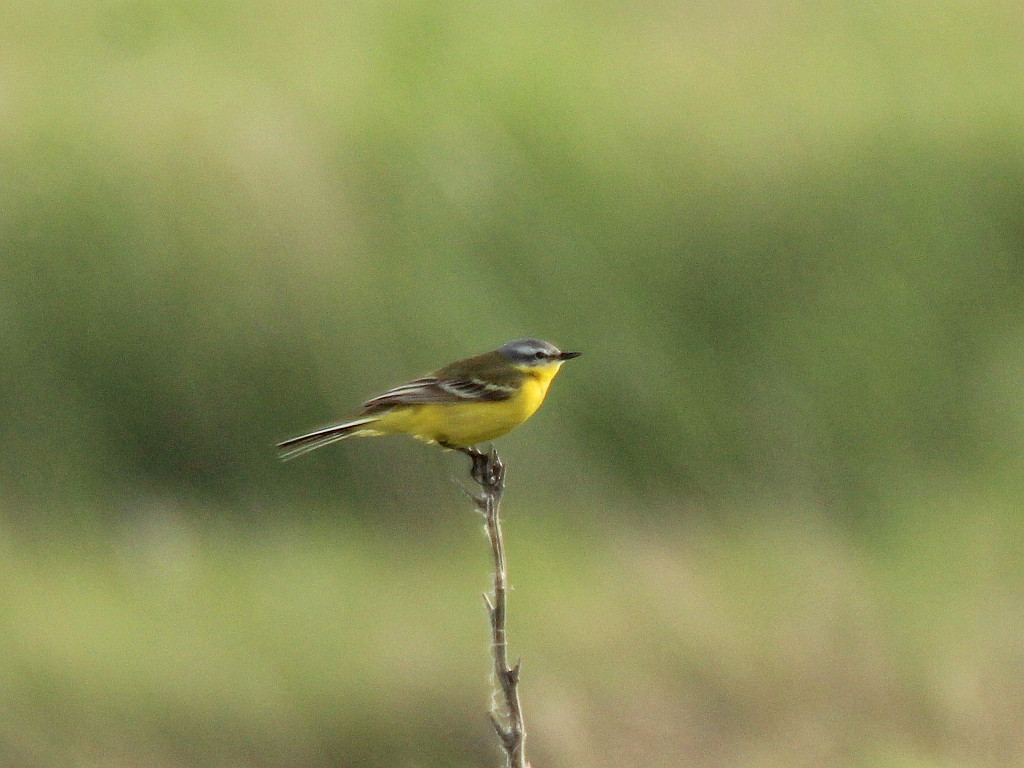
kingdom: Animalia
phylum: Chordata
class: Aves
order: Passeriformes
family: Motacillidae
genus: Motacilla
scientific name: Motacilla flava
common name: Western yellow wagtail
